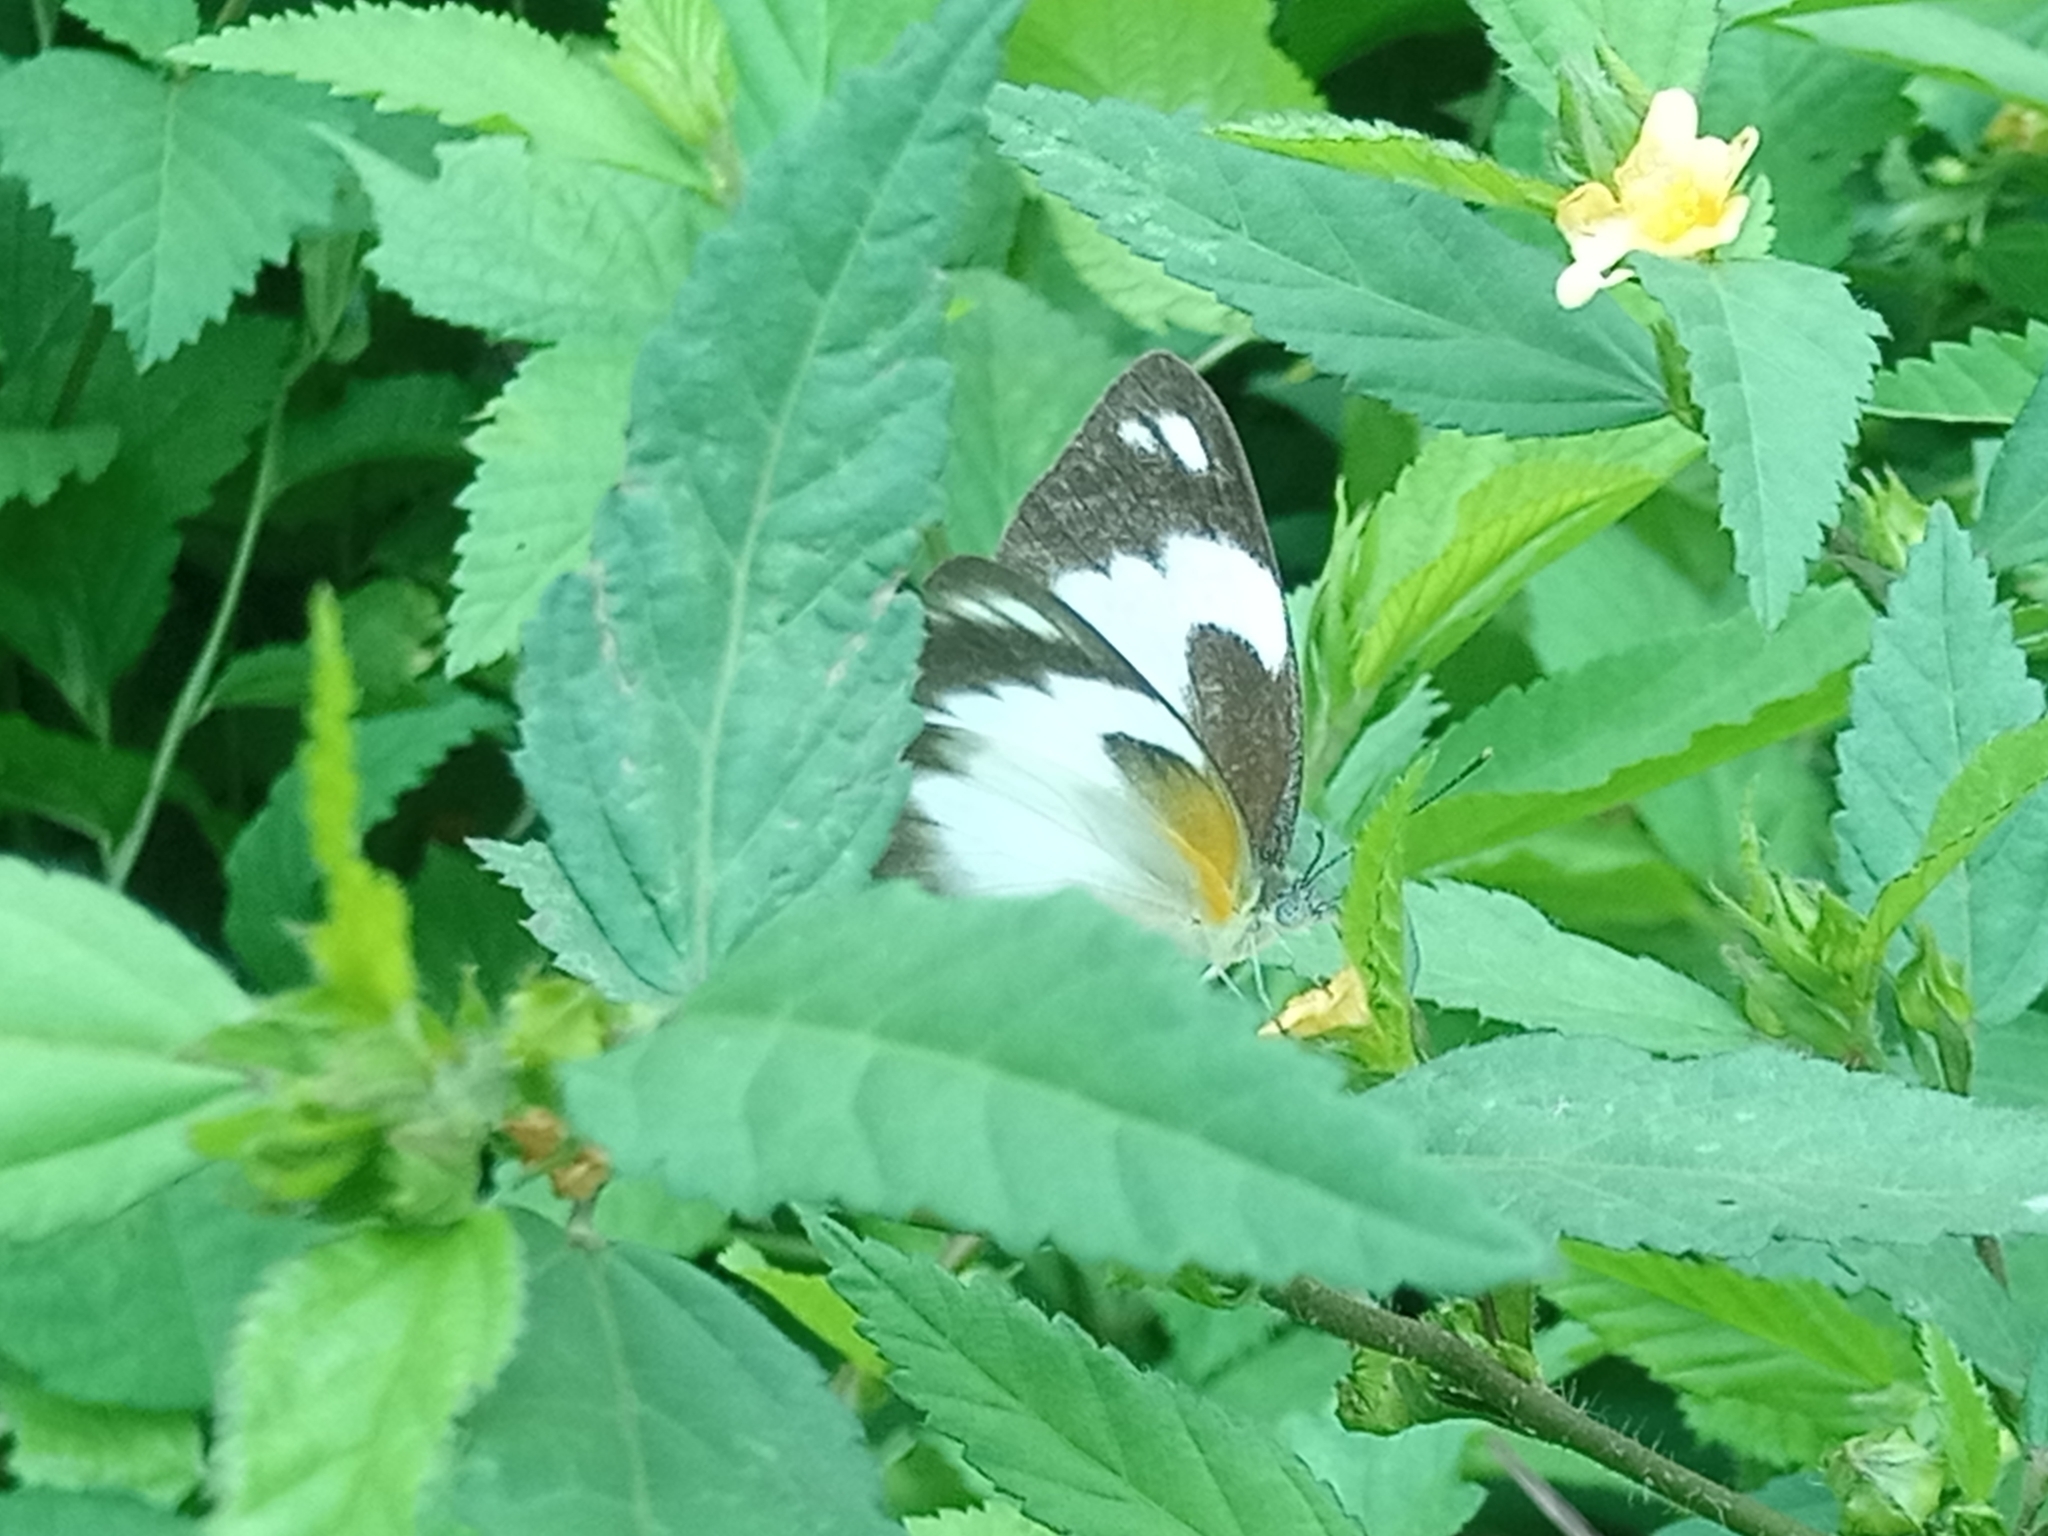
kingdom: Animalia
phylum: Arthropoda
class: Insecta
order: Lepidoptera
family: Pieridae
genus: Glutophrissa
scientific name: Glutophrissa epaphia
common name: African albatross
